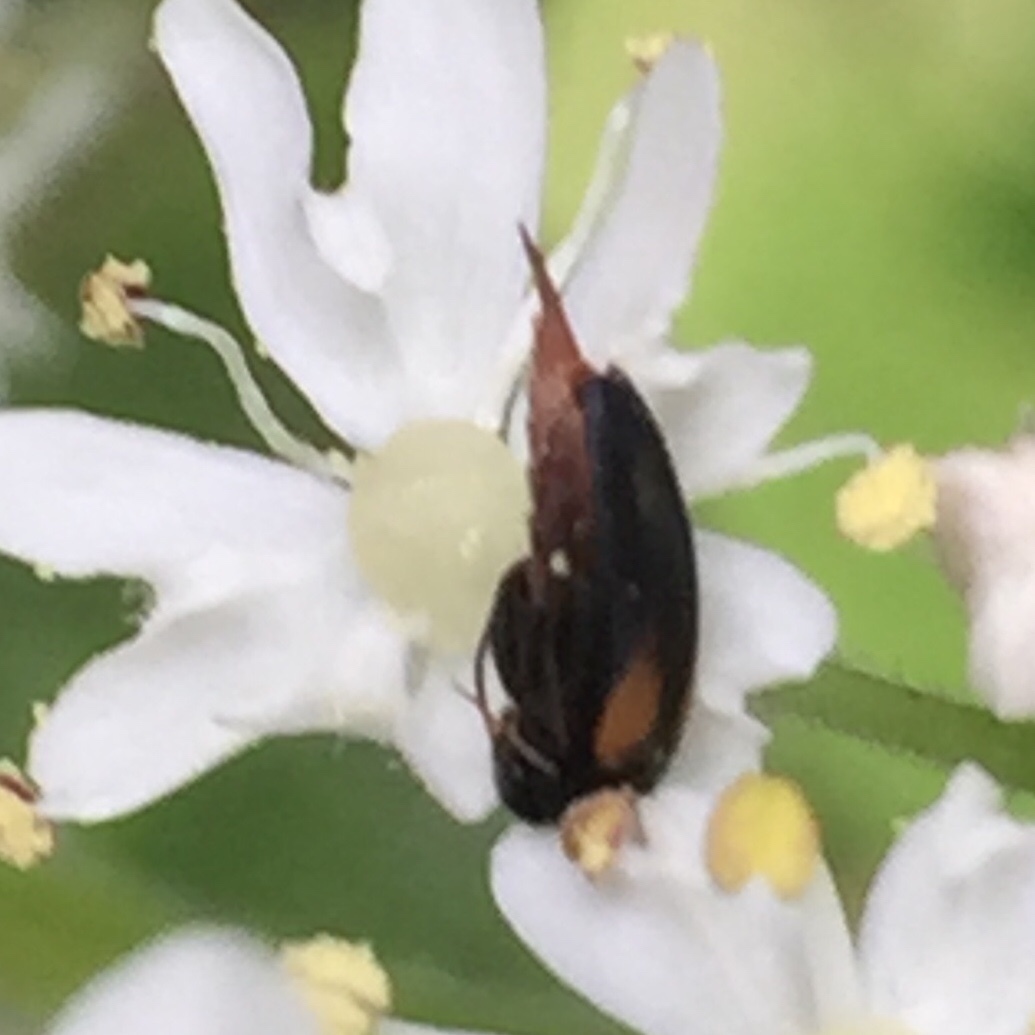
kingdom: Animalia
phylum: Arthropoda
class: Insecta
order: Coleoptera
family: Mordellidae
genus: Mordellochroa
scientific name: Mordellochroa scapularis
